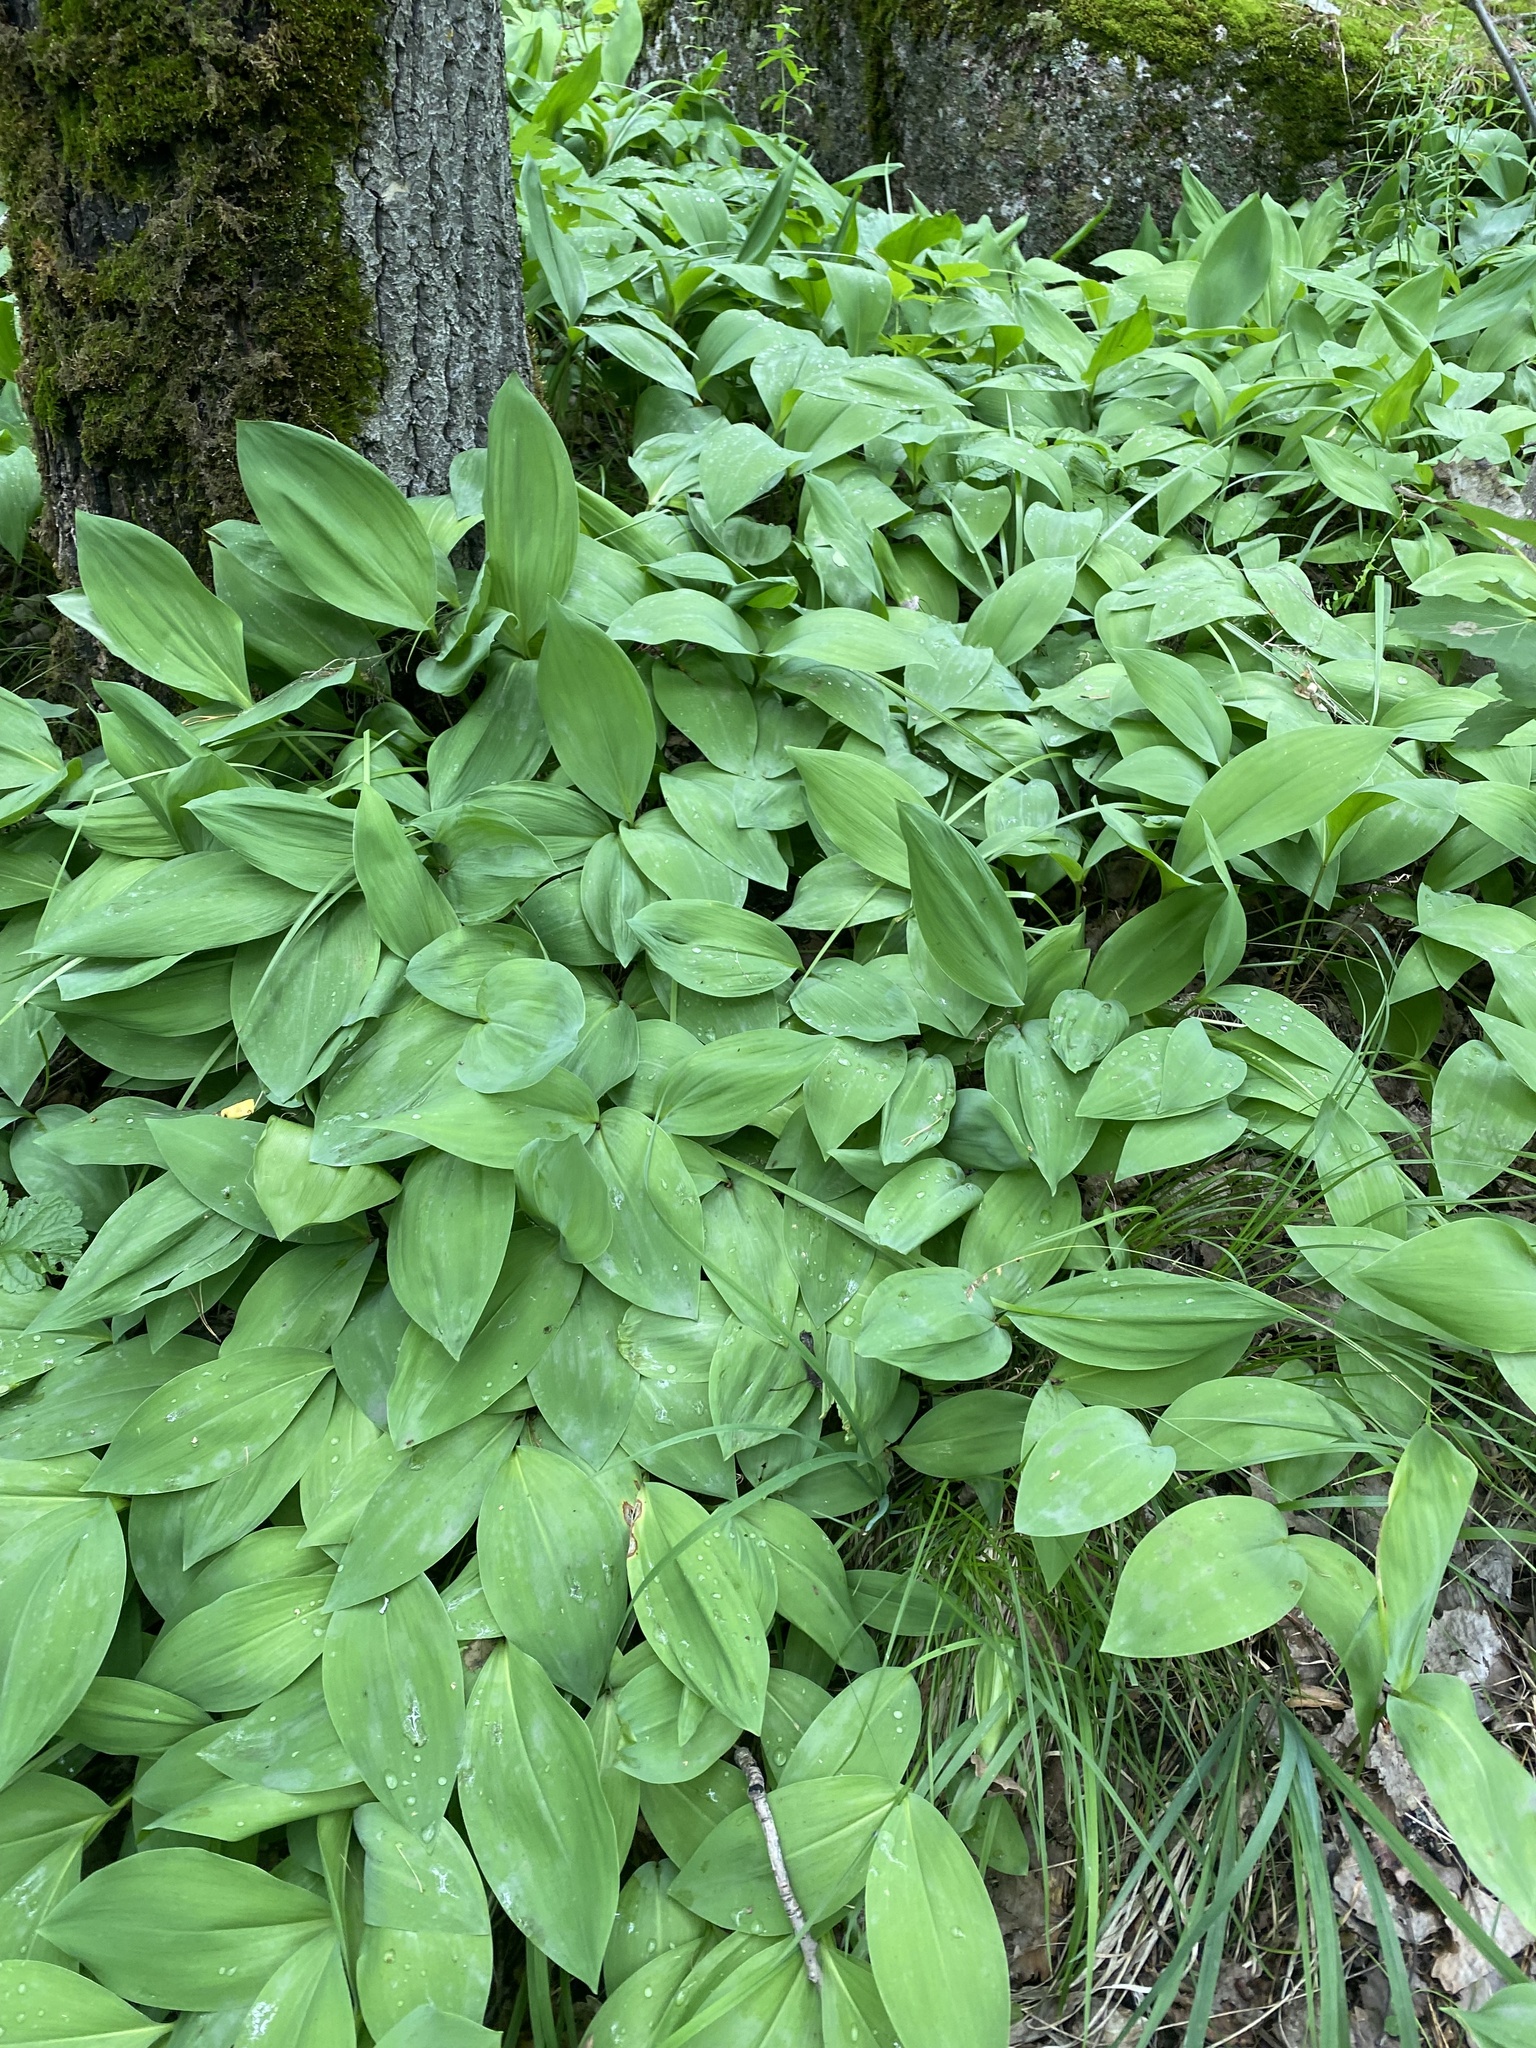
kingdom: Plantae
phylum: Tracheophyta
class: Liliopsida
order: Asparagales
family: Amaryllidaceae
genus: Allium
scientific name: Allium microdictyon
